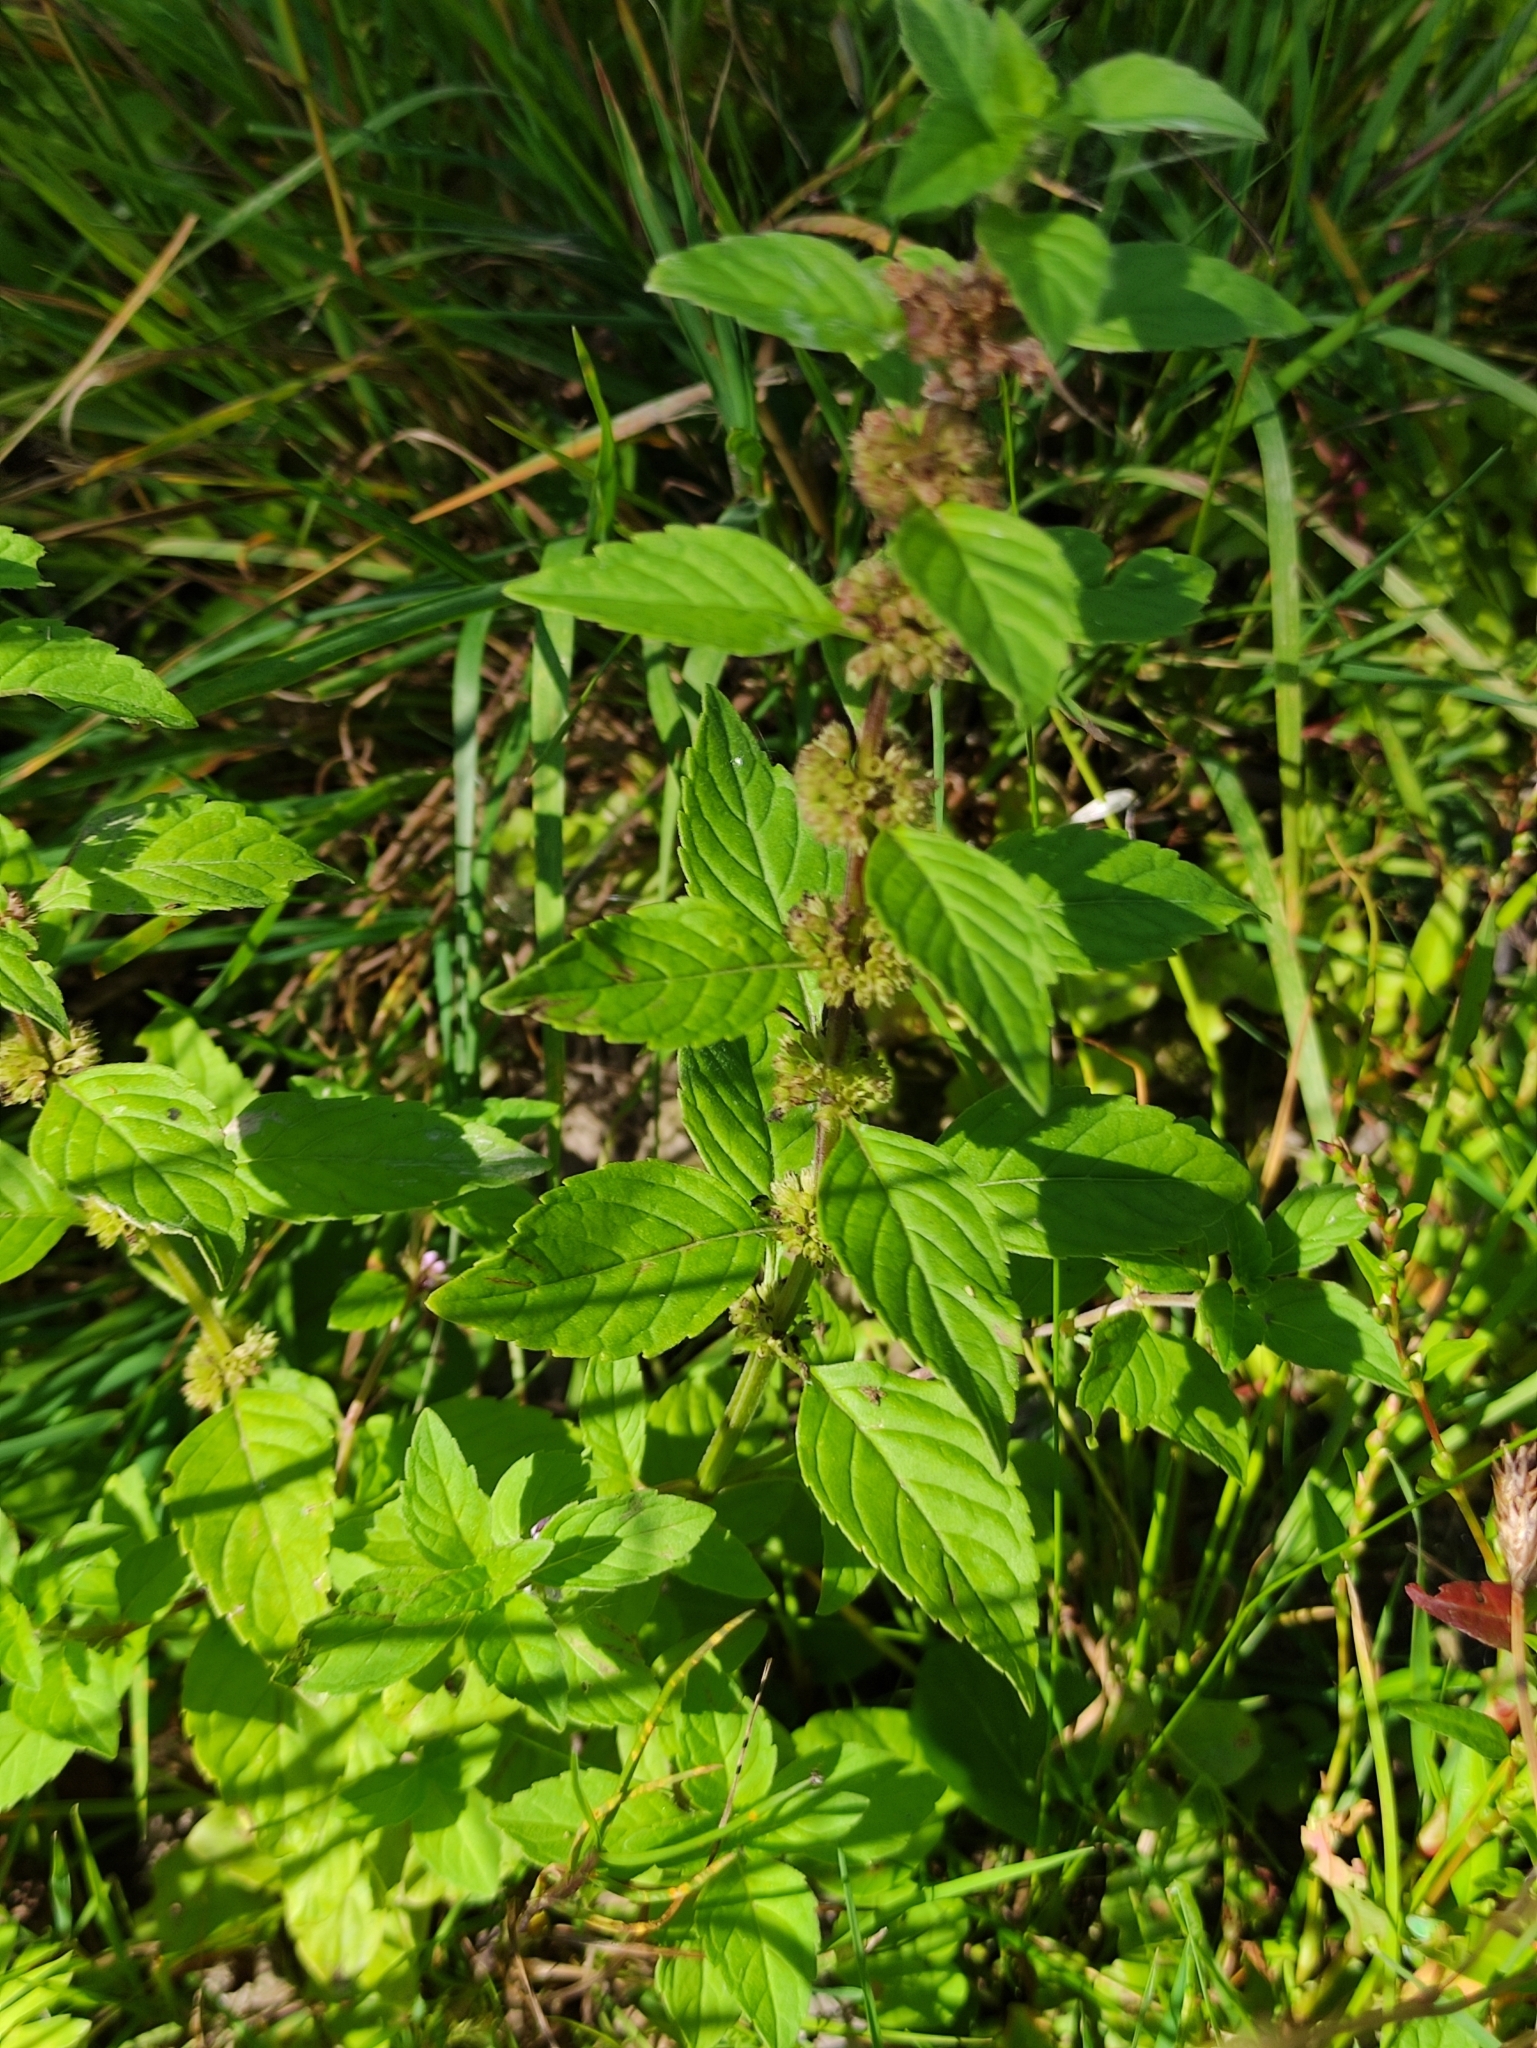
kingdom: Plantae
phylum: Tracheophyta
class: Magnoliopsida
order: Lamiales
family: Lamiaceae
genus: Mentha
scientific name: Mentha arvensis
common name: Corn mint
